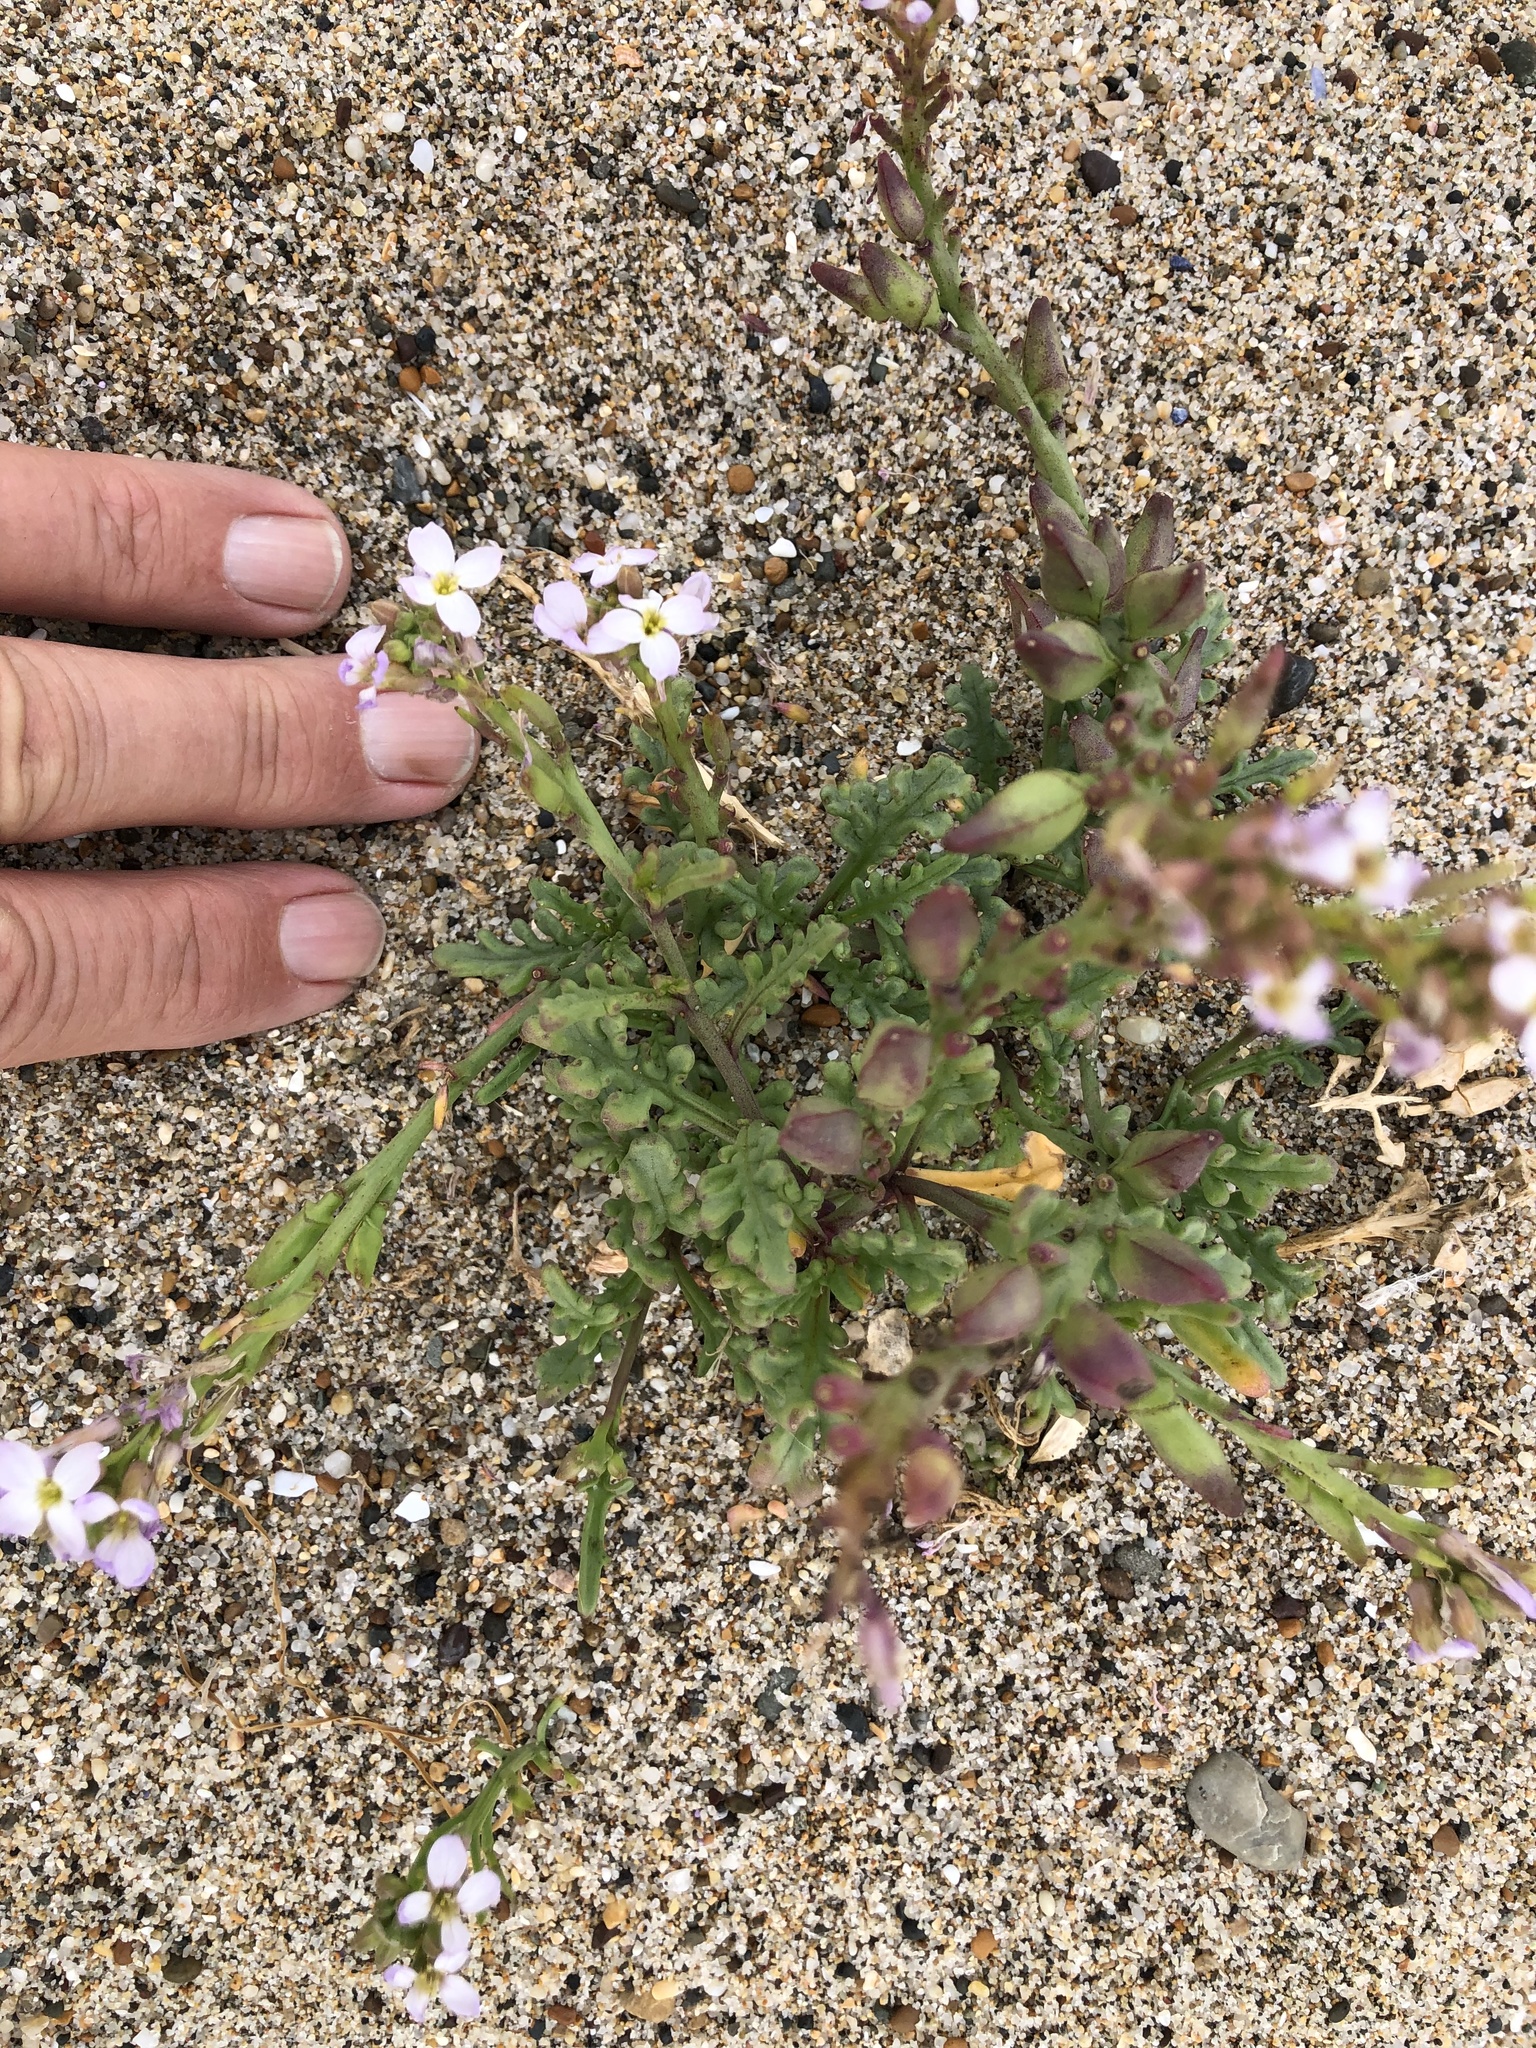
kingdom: Plantae
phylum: Tracheophyta
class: Magnoliopsida
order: Brassicales
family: Brassicaceae
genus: Cakile
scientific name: Cakile maritima
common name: Sea rocket
